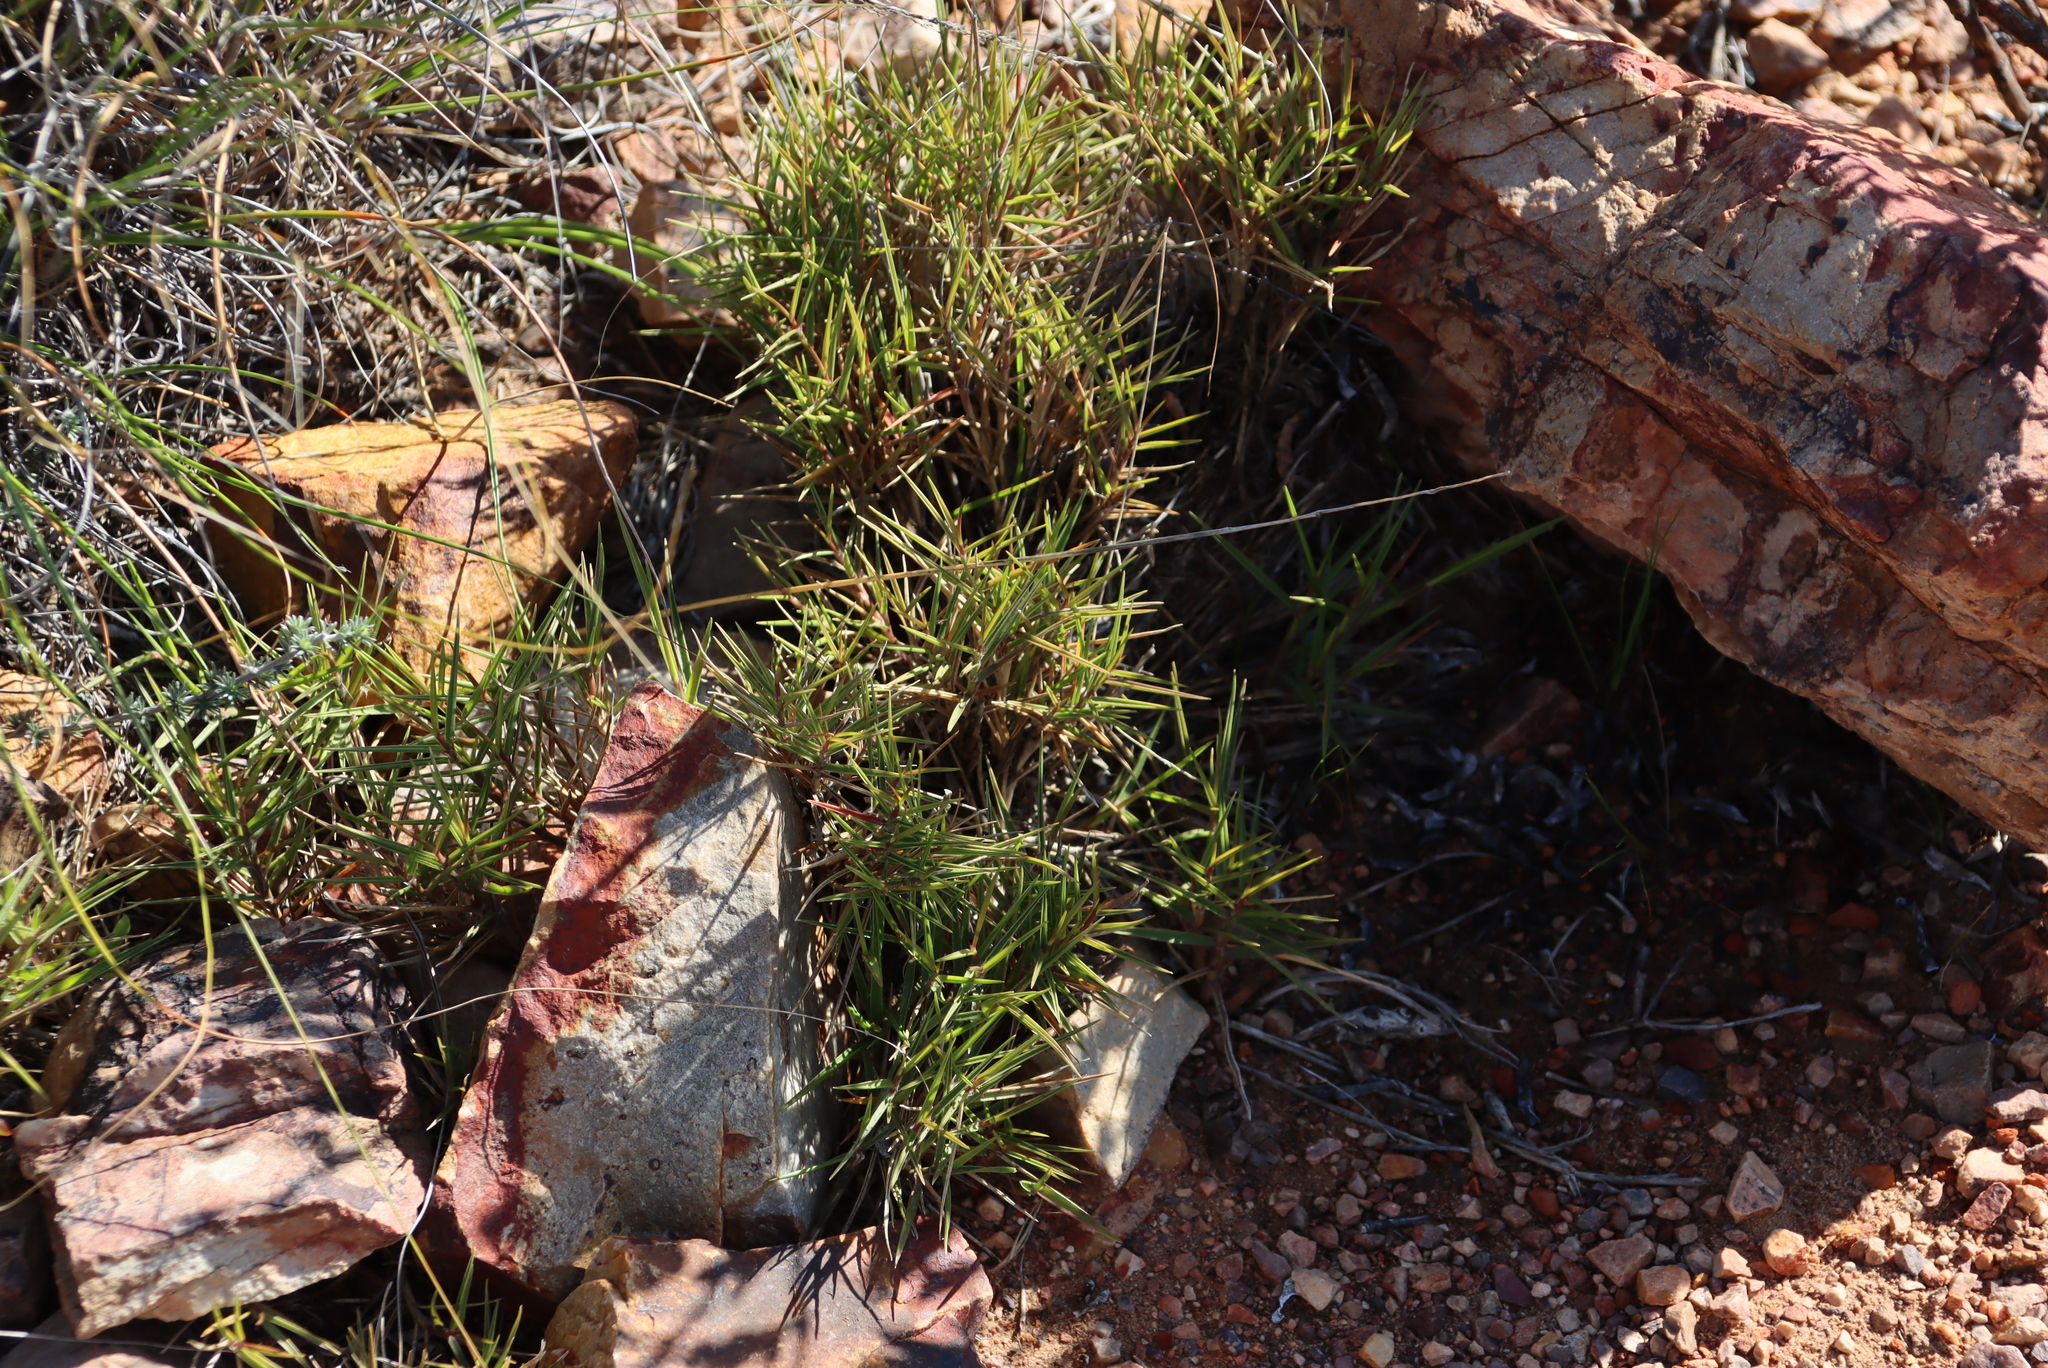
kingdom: Plantae
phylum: Tracheophyta
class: Liliopsida
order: Poales
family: Poaceae
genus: Urochloa
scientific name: Urochloa serrata
